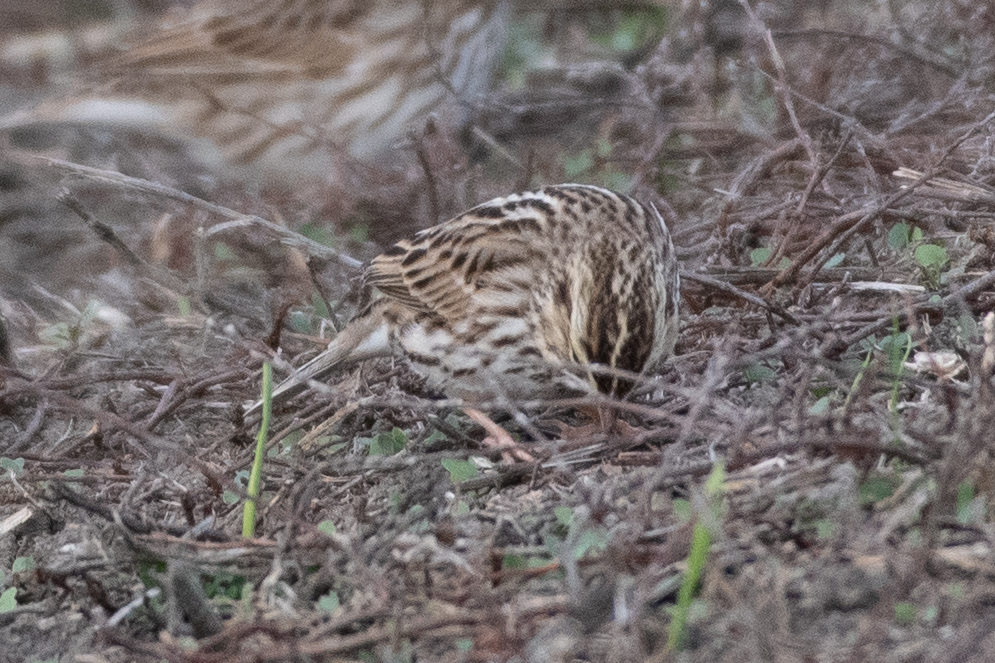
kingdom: Animalia
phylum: Chordata
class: Aves
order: Passeriformes
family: Passerellidae
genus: Passerculus
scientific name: Passerculus sandwichensis
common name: Savannah sparrow
